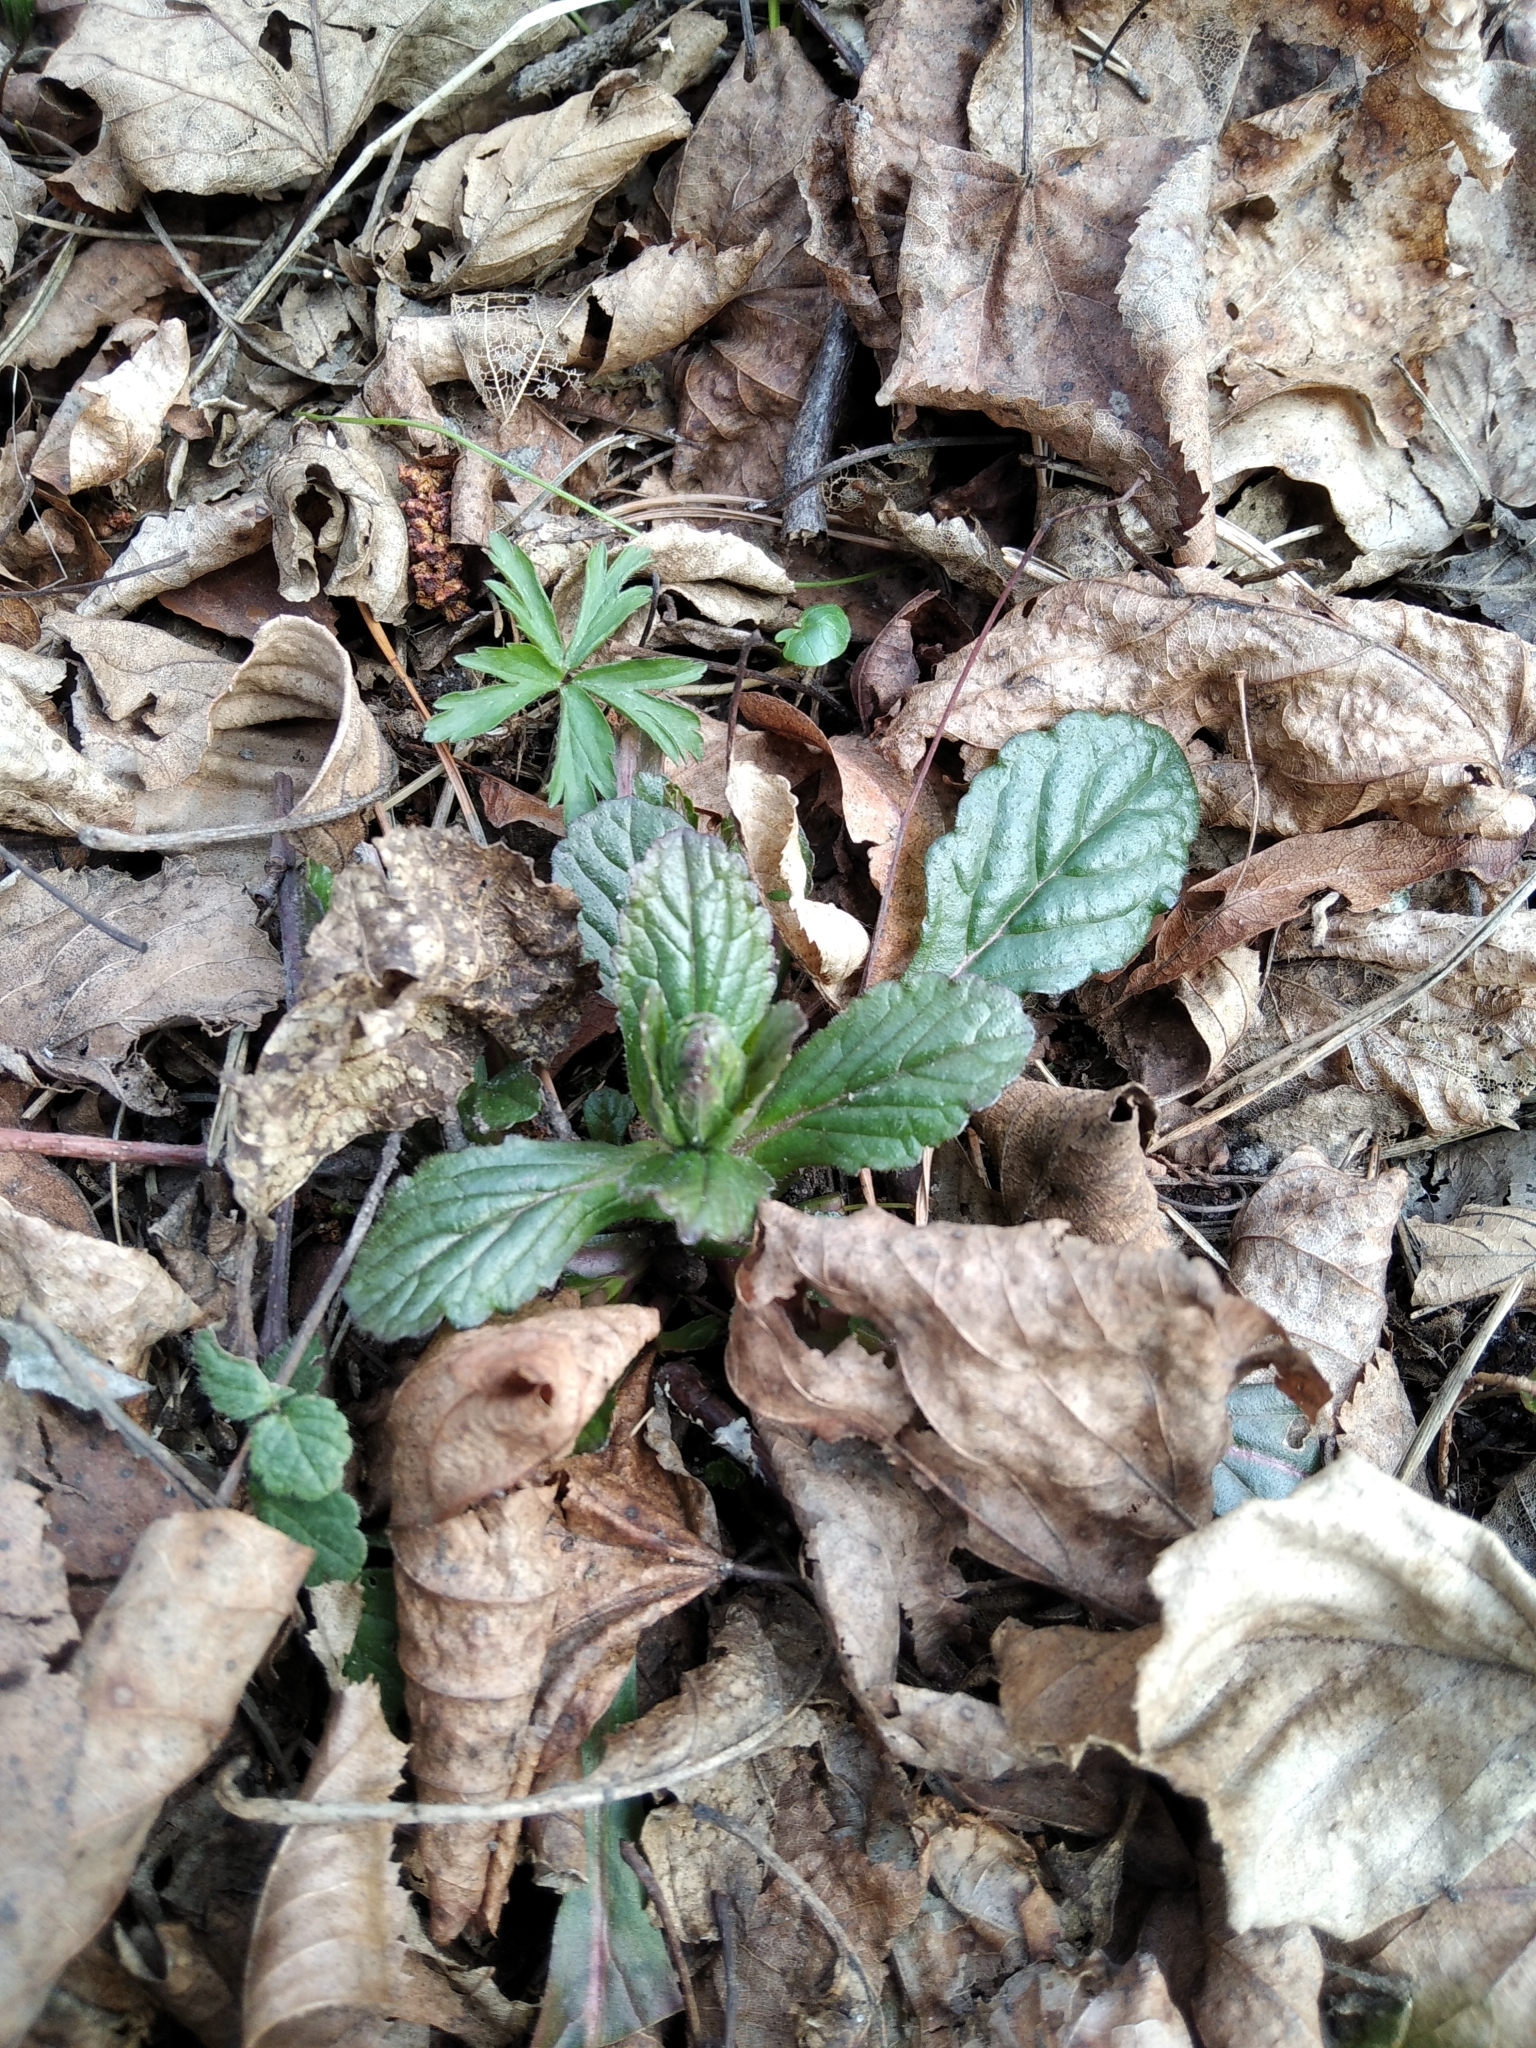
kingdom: Plantae
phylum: Tracheophyta
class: Magnoliopsida
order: Lamiales
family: Lamiaceae
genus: Ajuga
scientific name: Ajuga reptans
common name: Bugle
